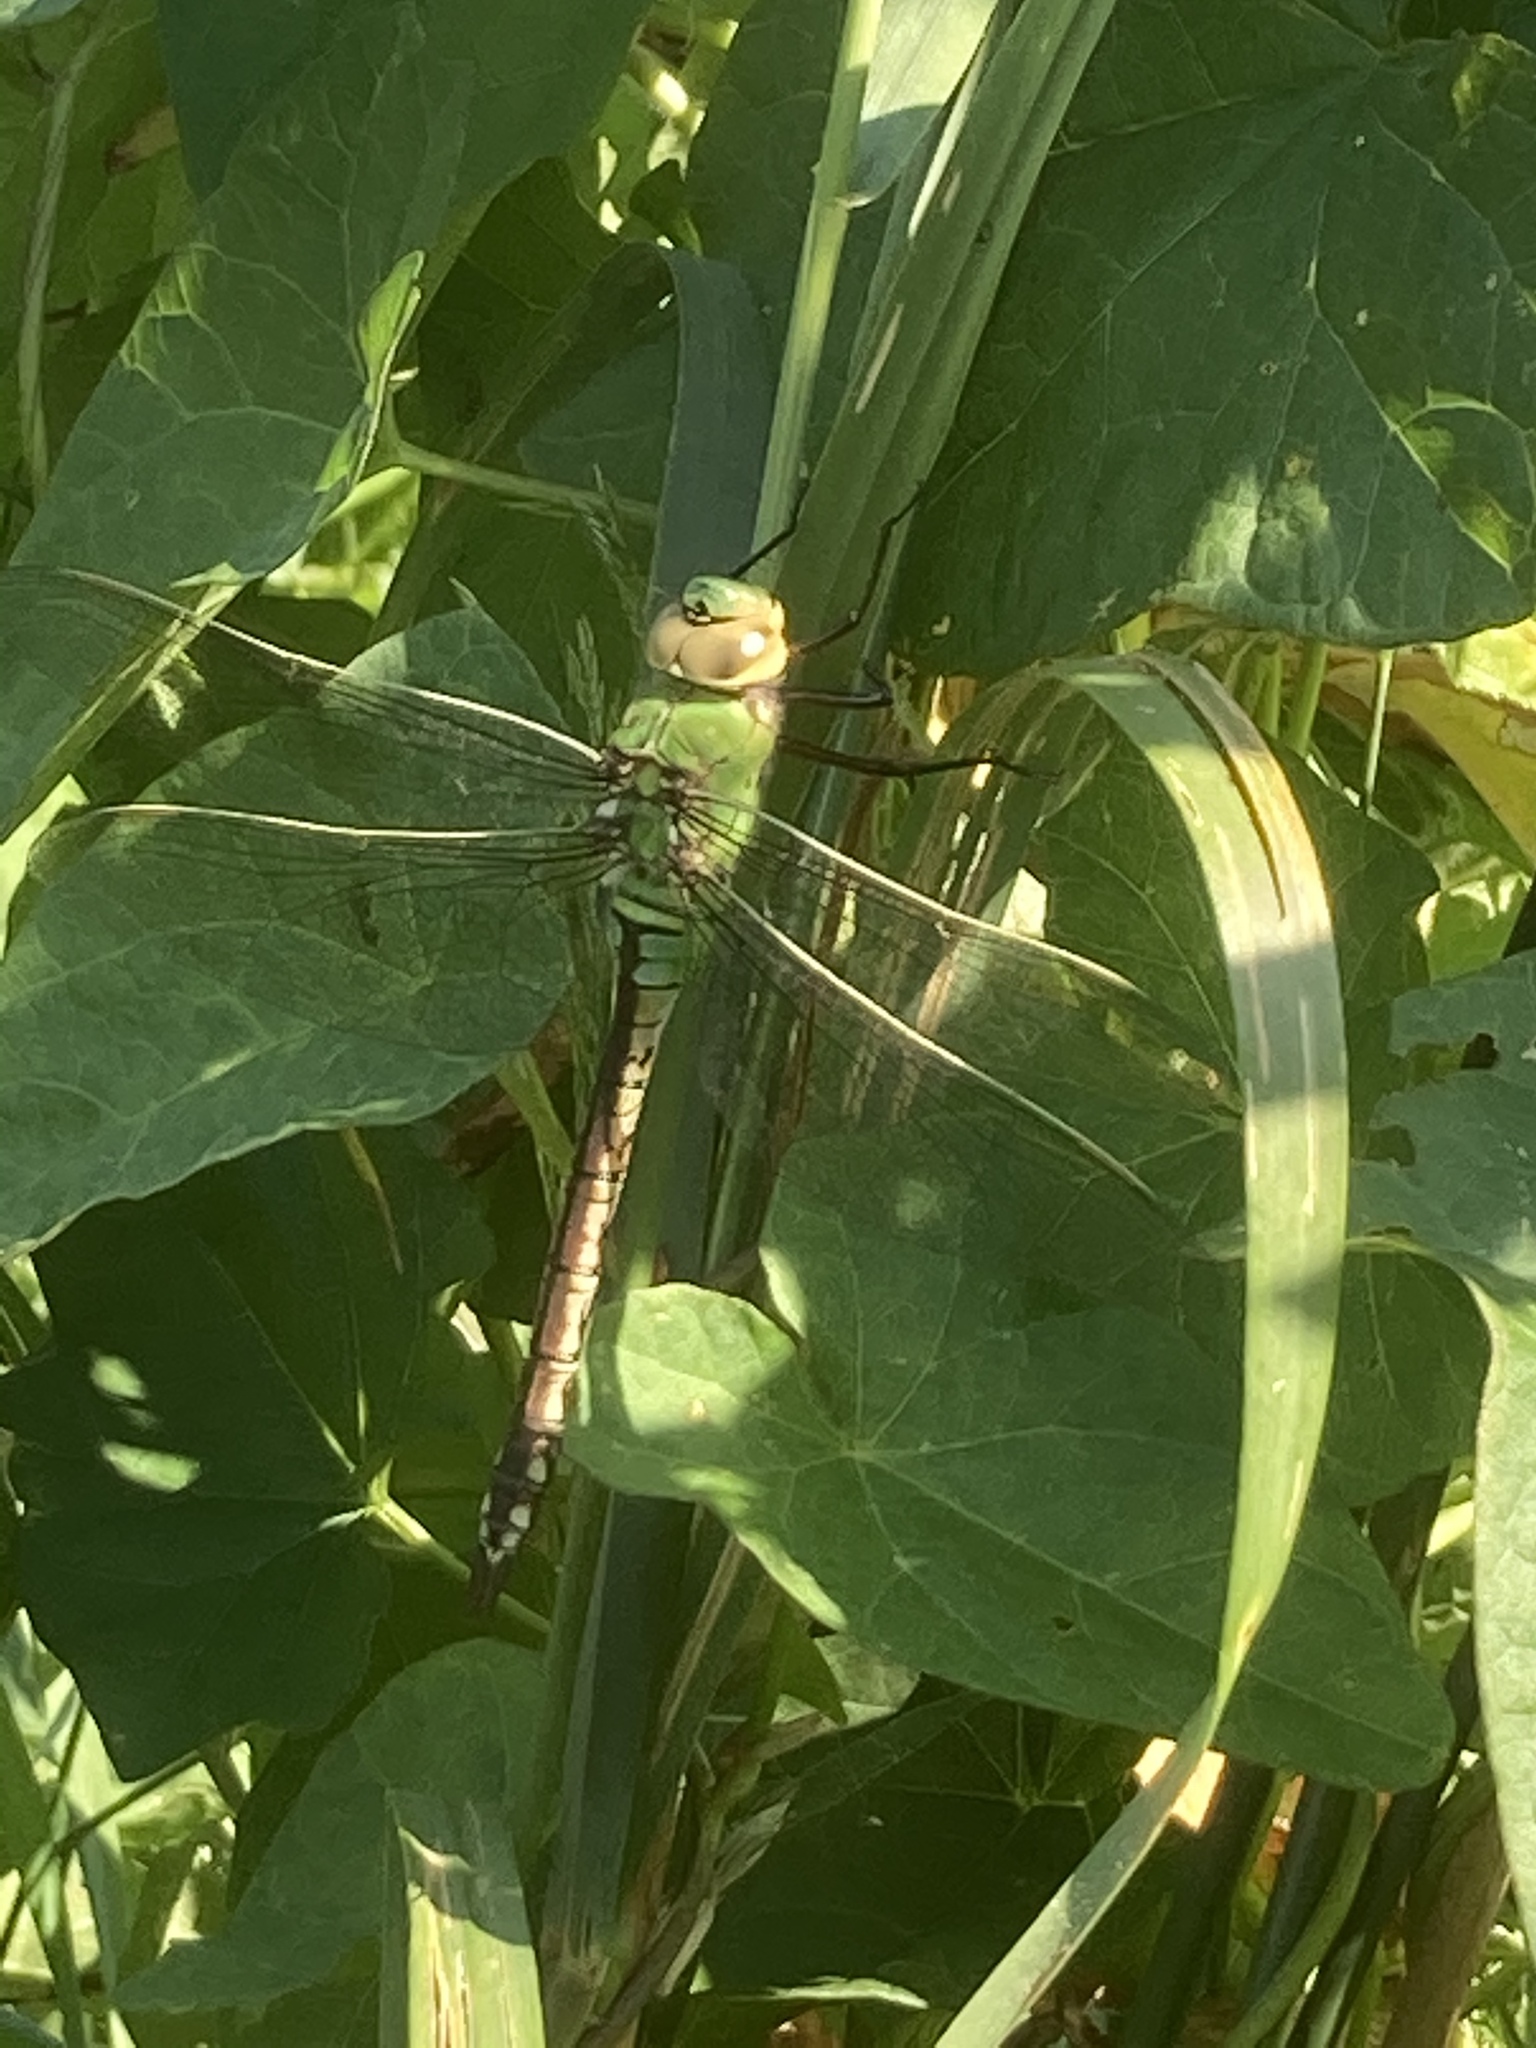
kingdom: Animalia
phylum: Arthropoda
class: Insecta
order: Odonata
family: Aeshnidae
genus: Anax
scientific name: Anax imperator
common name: Emperor dragonfly
